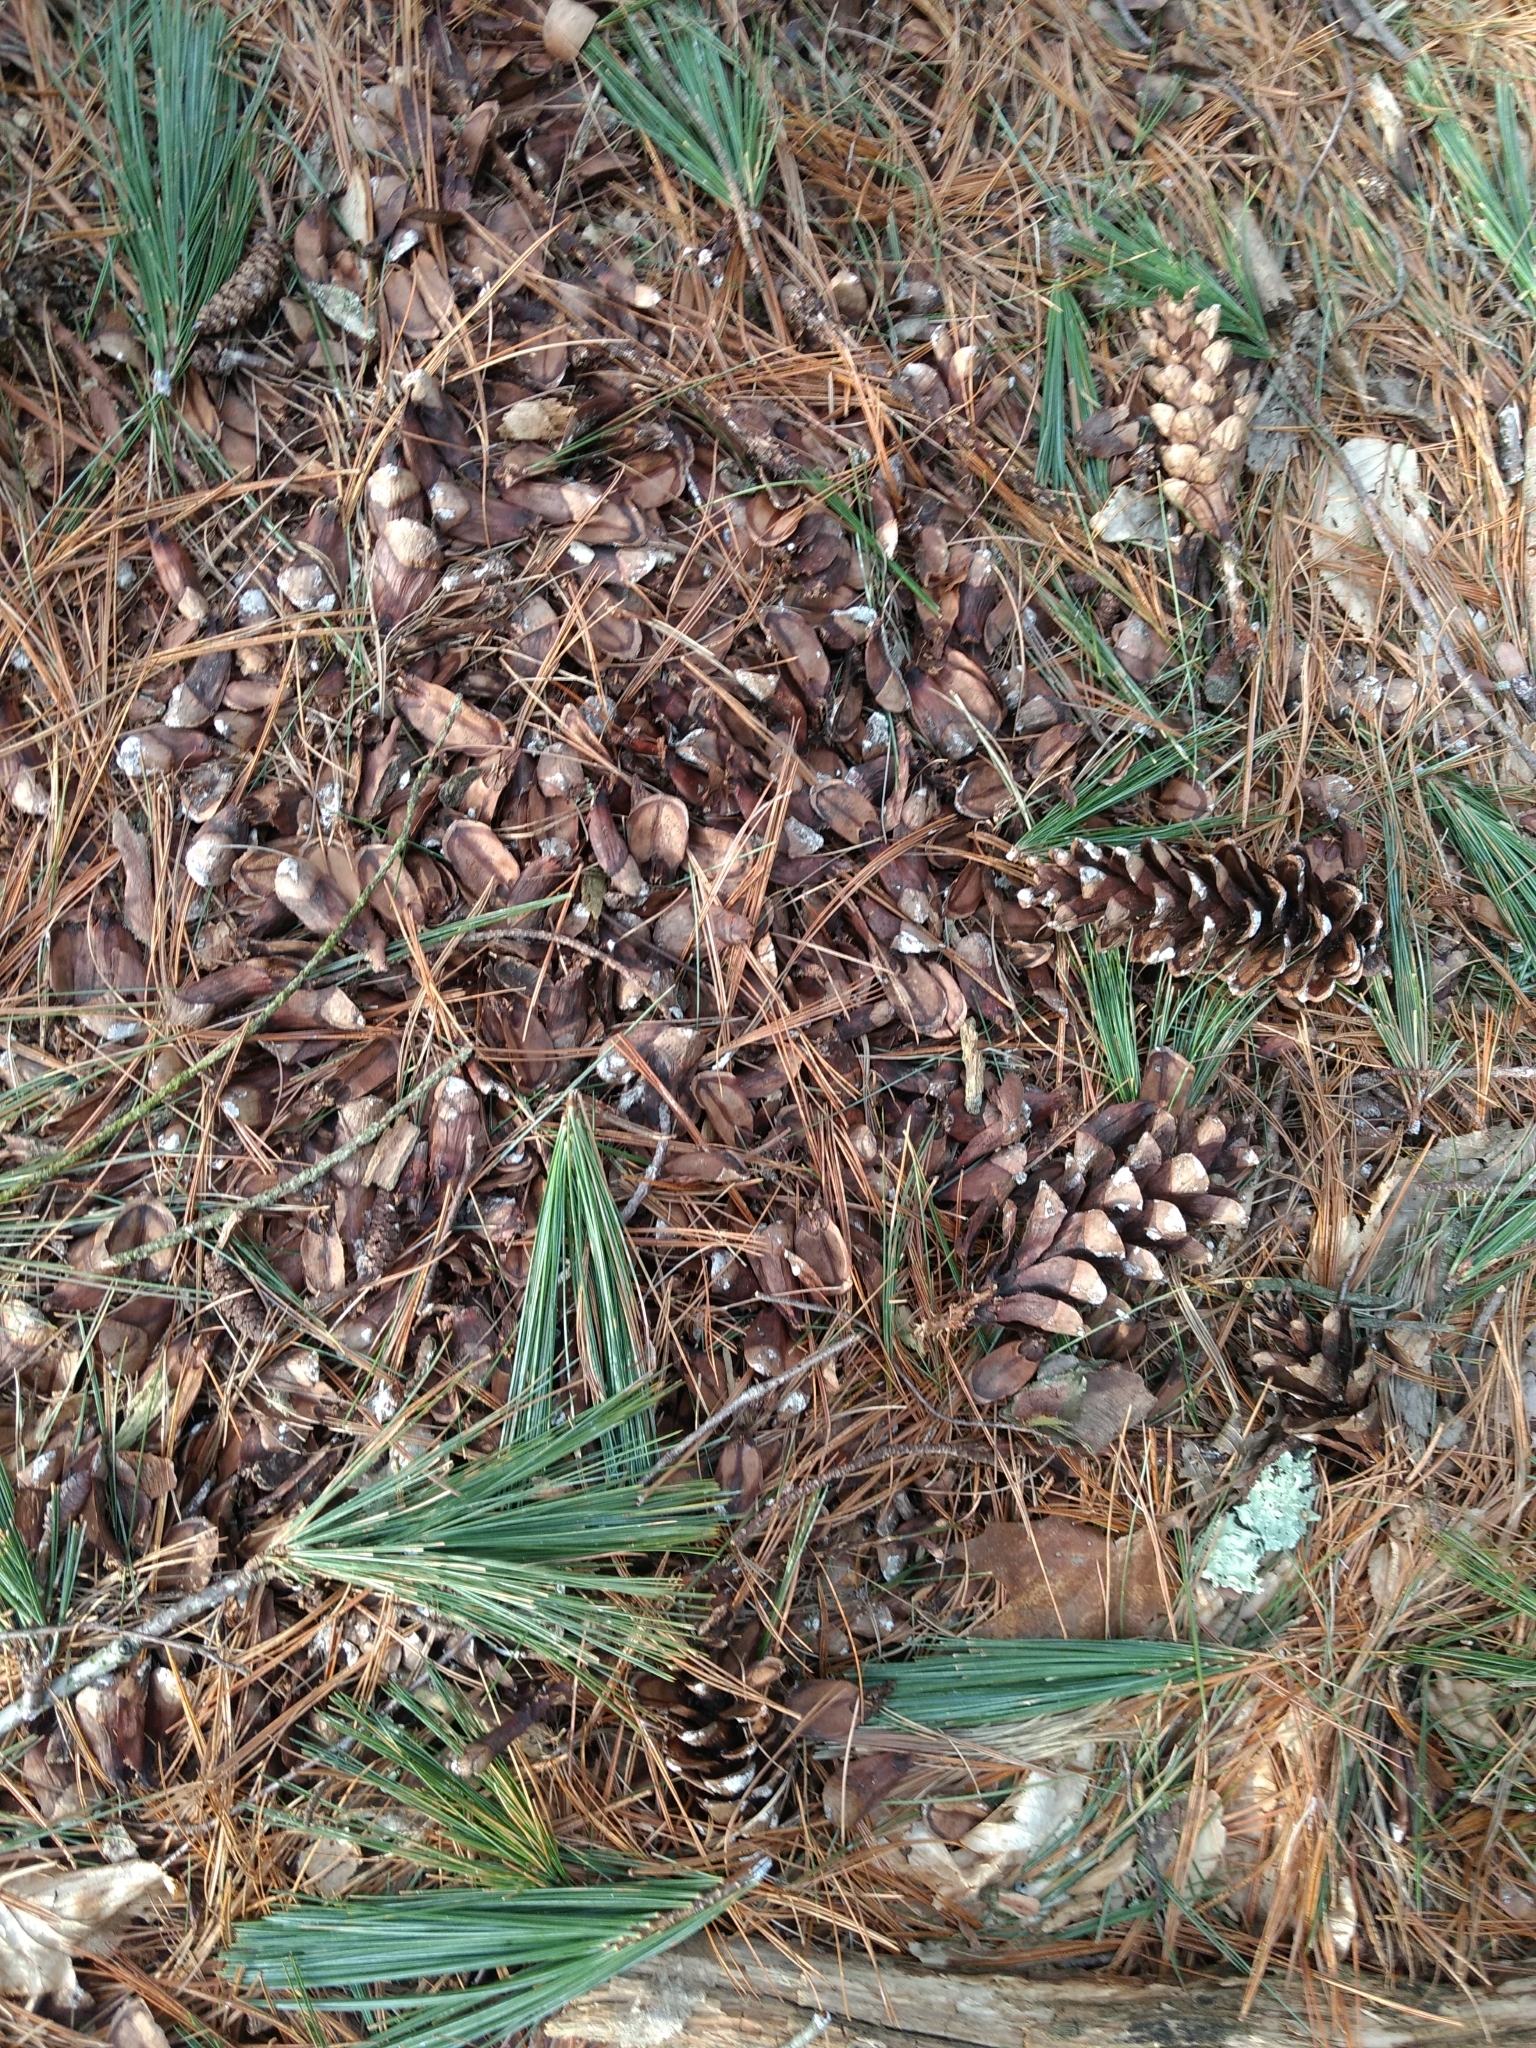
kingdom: Plantae
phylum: Tracheophyta
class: Pinopsida
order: Pinales
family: Pinaceae
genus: Pinus
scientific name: Pinus strobus
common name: Weymouth pine
